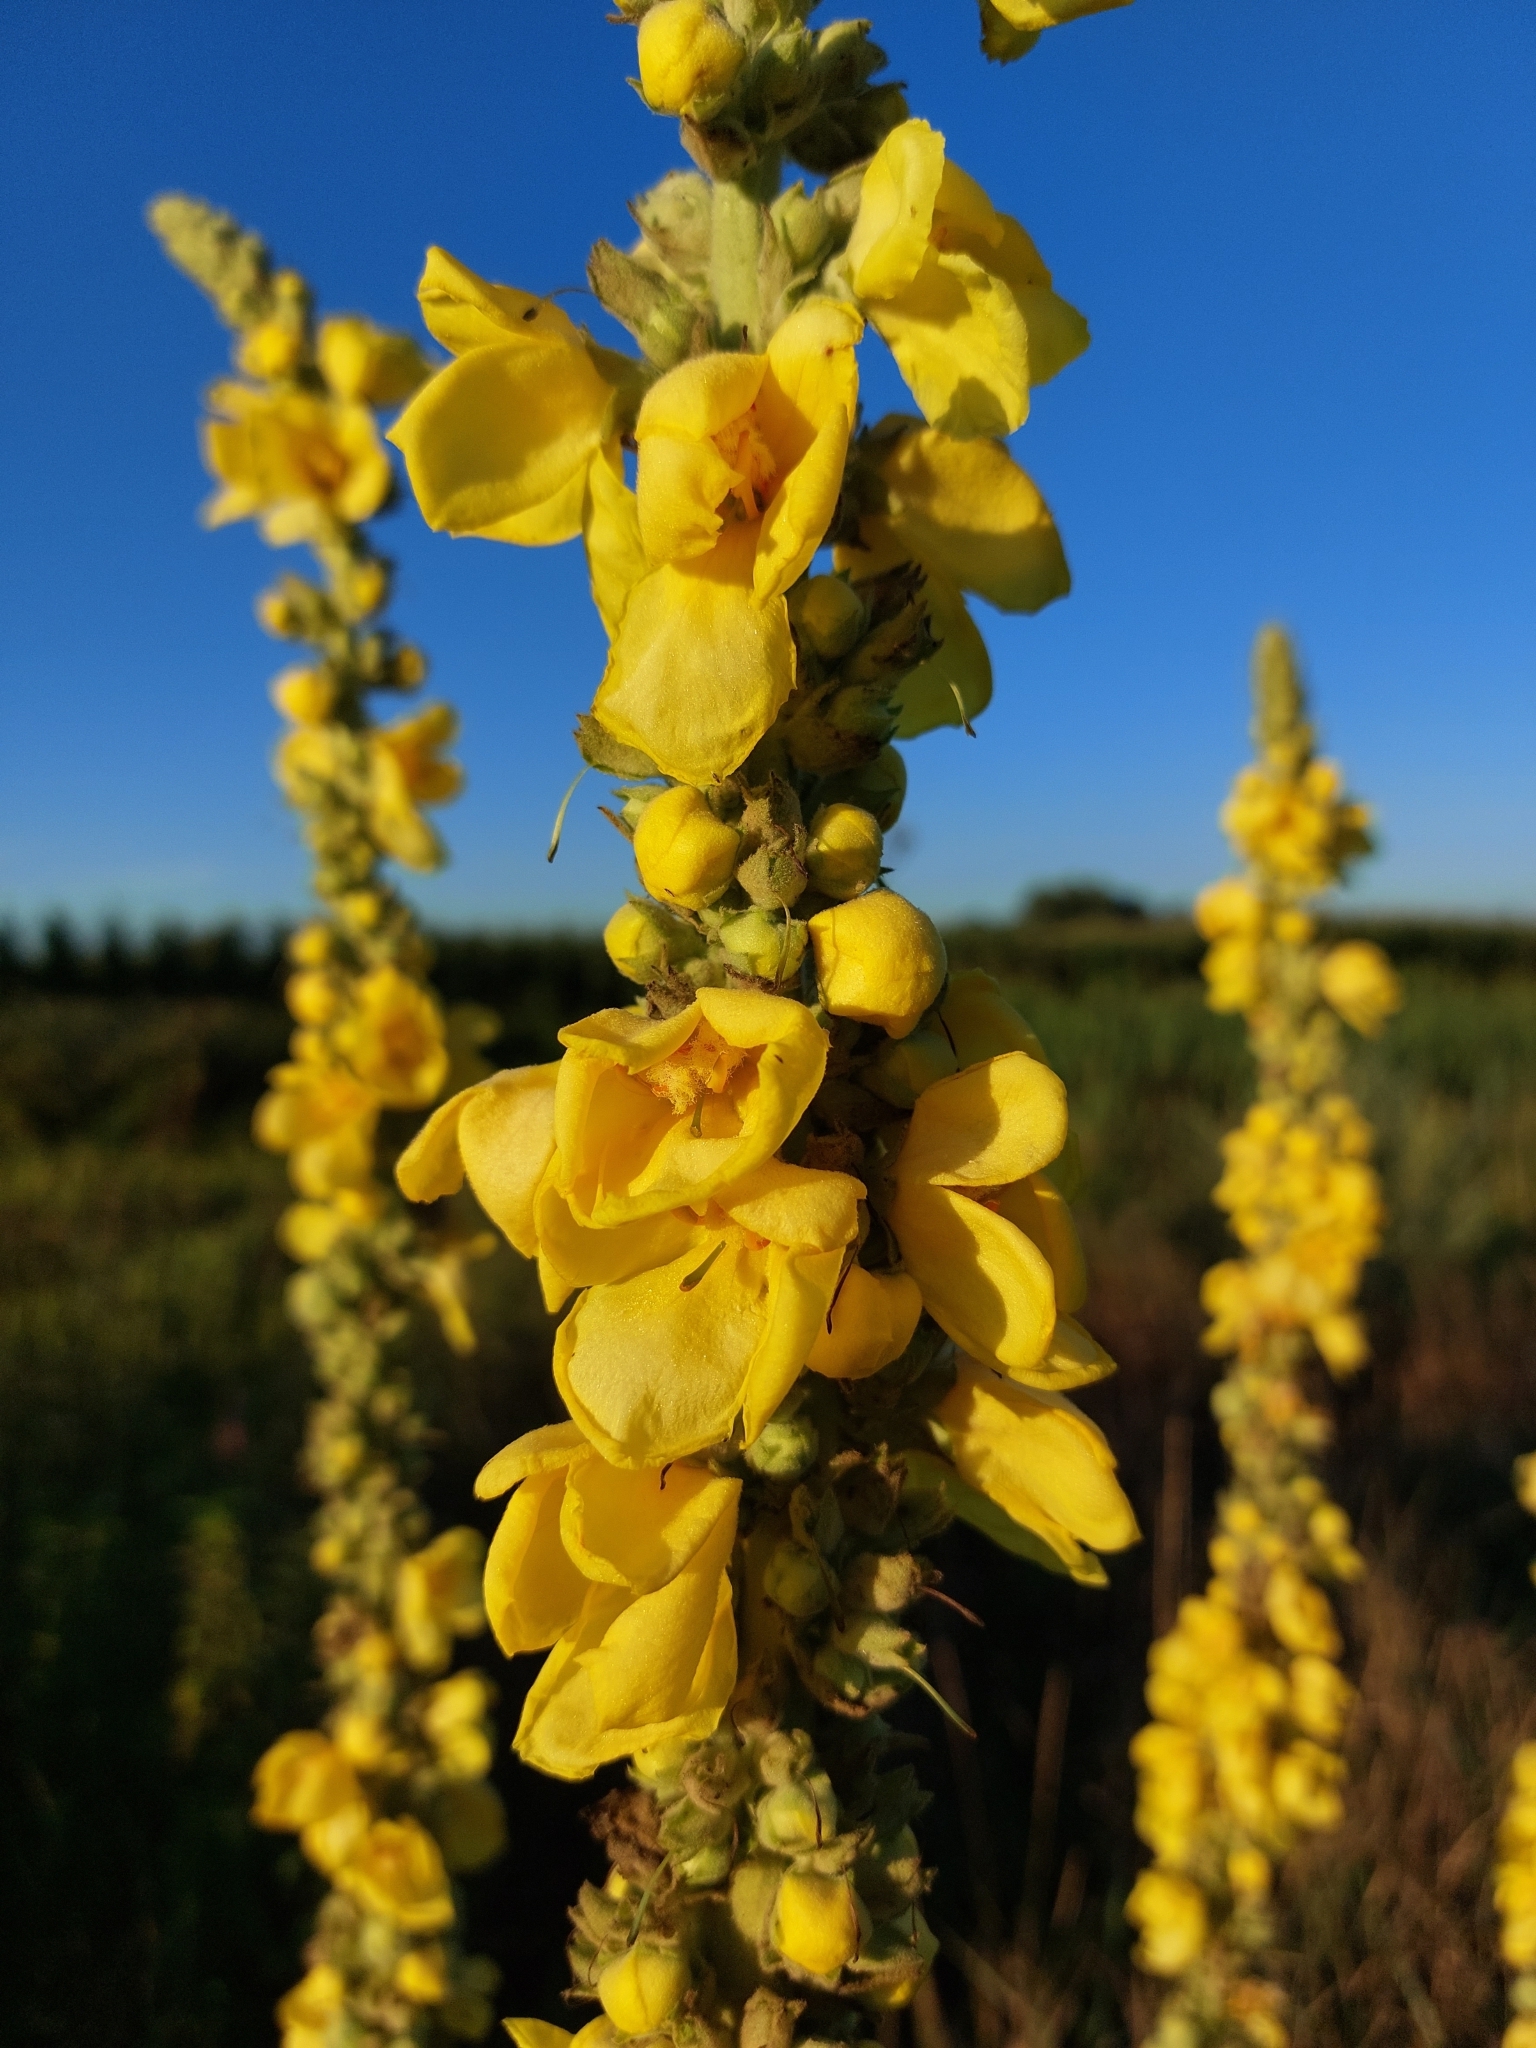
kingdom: Plantae
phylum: Tracheophyta
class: Magnoliopsida
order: Lamiales
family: Scrophulariaceae
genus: Verbascum
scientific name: Verbascum phlomoides
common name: Orange mullein
